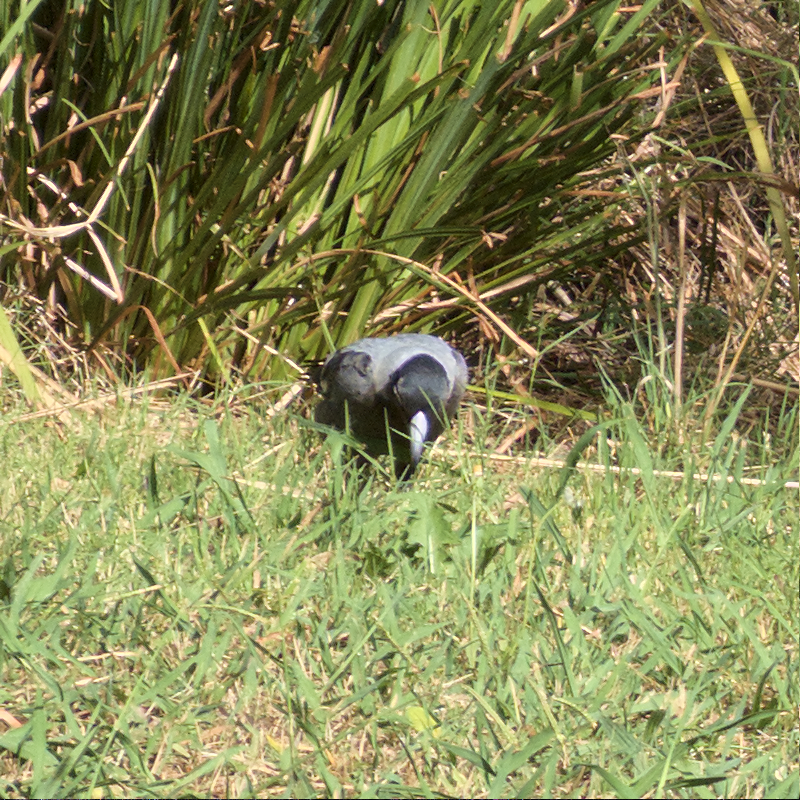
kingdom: Animalia
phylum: Chordata
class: Aves
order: Passeriformes
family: Cracticidae
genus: Gymnorhina
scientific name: Gymnorhina tibicen
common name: Australian magpie
